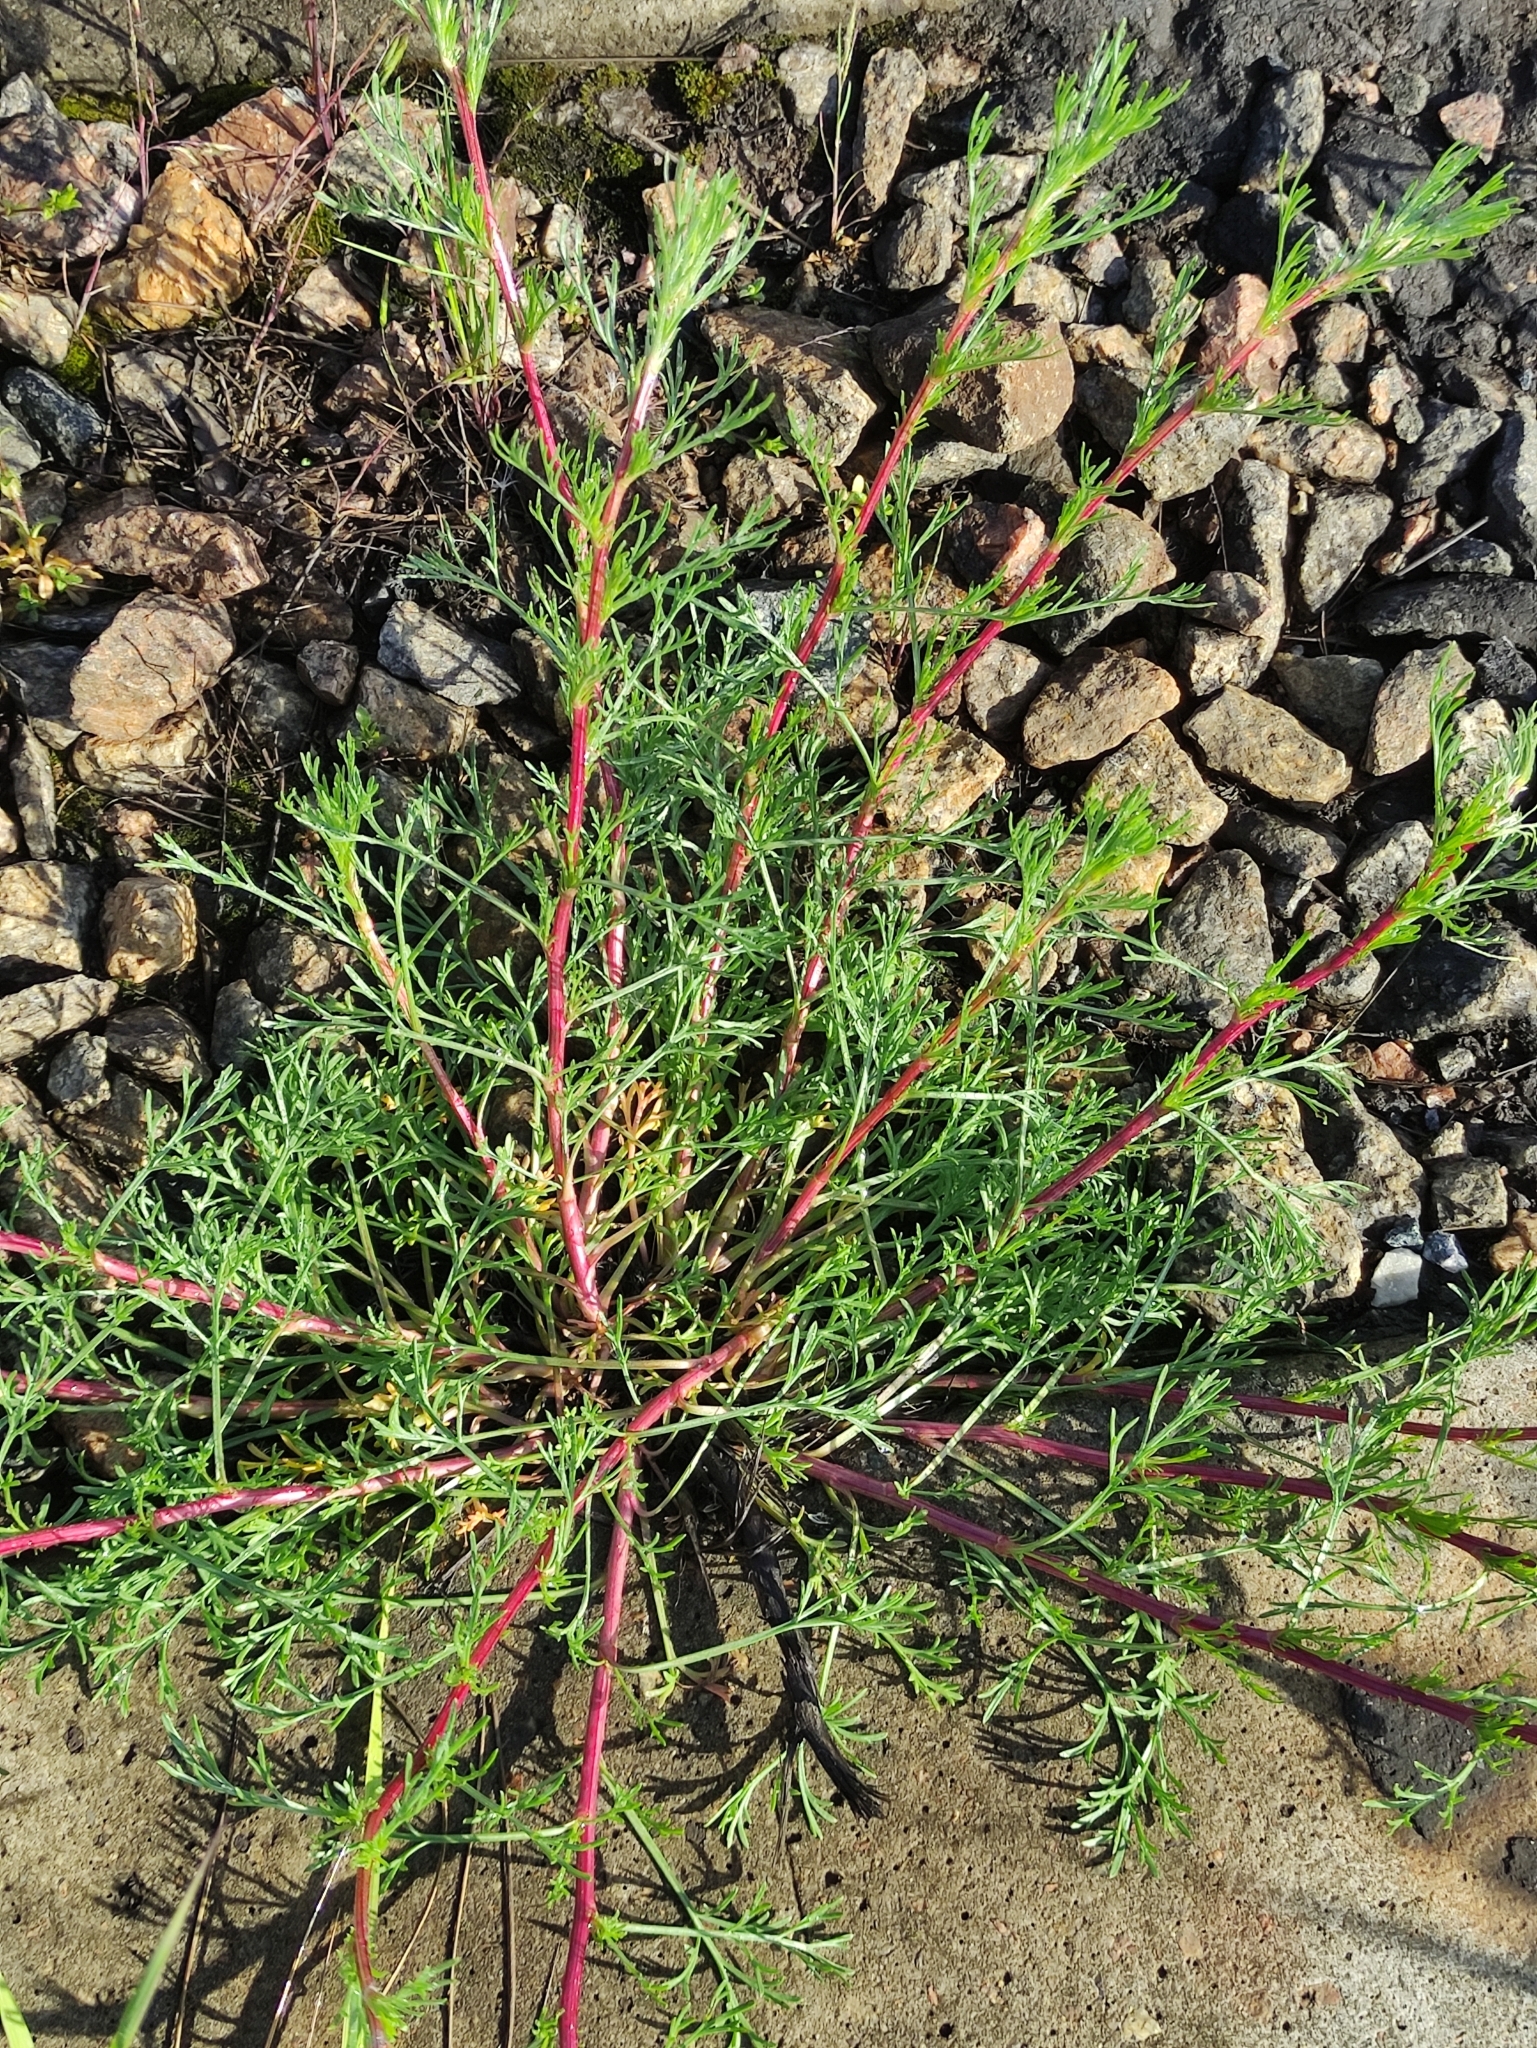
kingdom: Plantae
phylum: Tracheophyta
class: Magnoliopsida
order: Asterales
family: Asteraceae
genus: Artemisia
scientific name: Artemisia campestris
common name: Field wormwood
